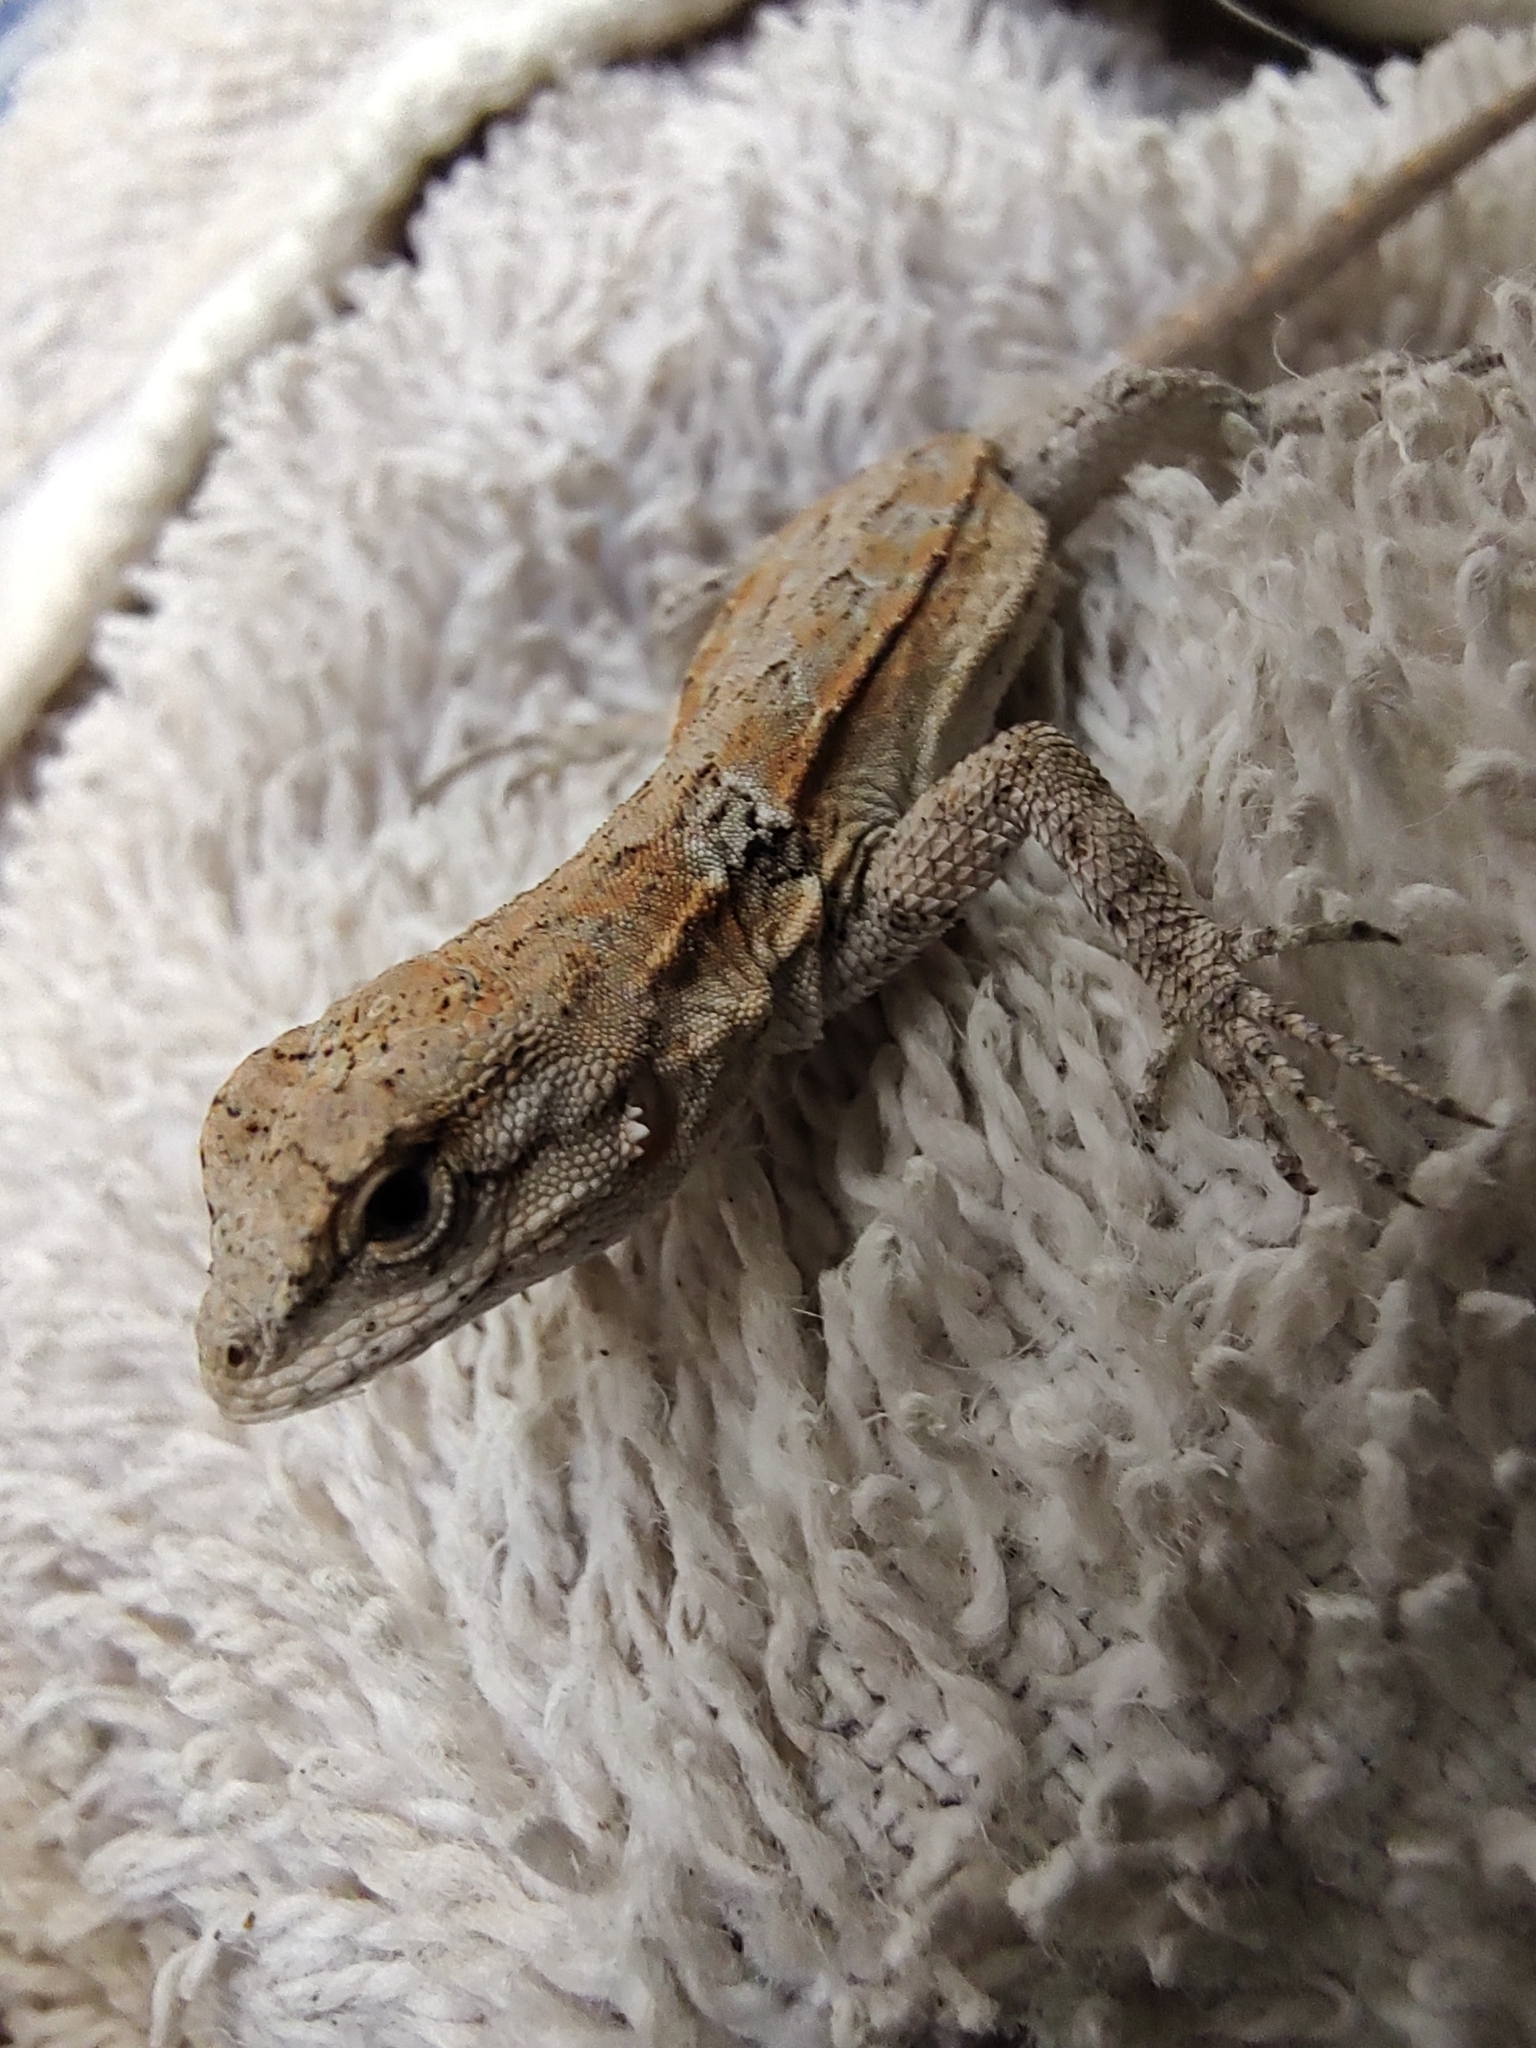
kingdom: Animalia
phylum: Chordata
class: Squamata
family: Phrynosomatidae
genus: Urosaurus
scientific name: Urosaurus nigricauda
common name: Baja california brush lizard
